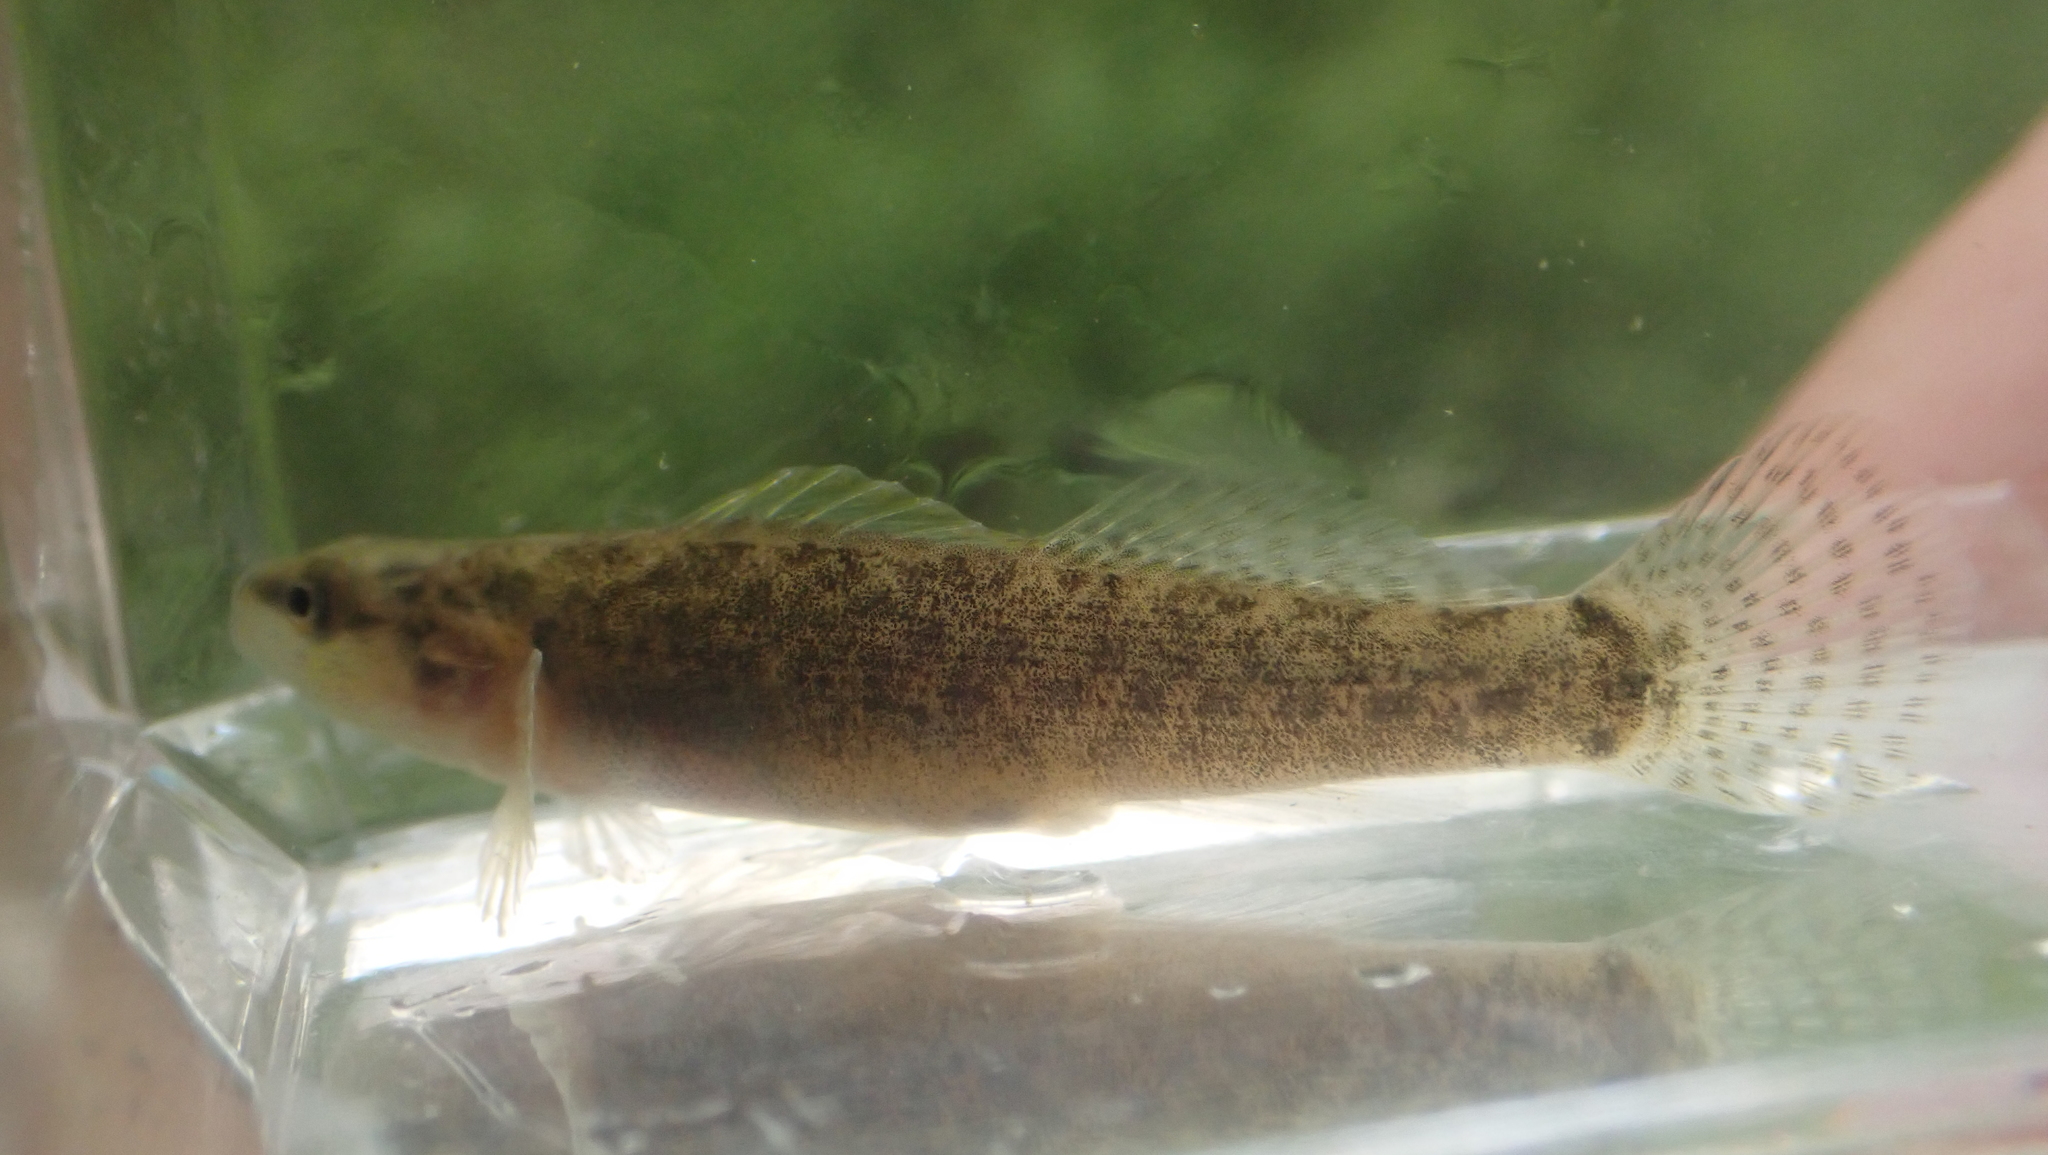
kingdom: Animalia
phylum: Chordata
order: Perciformes
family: Percidae
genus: Etheostoma
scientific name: Etheostoma flabellare
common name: Fantail darter
